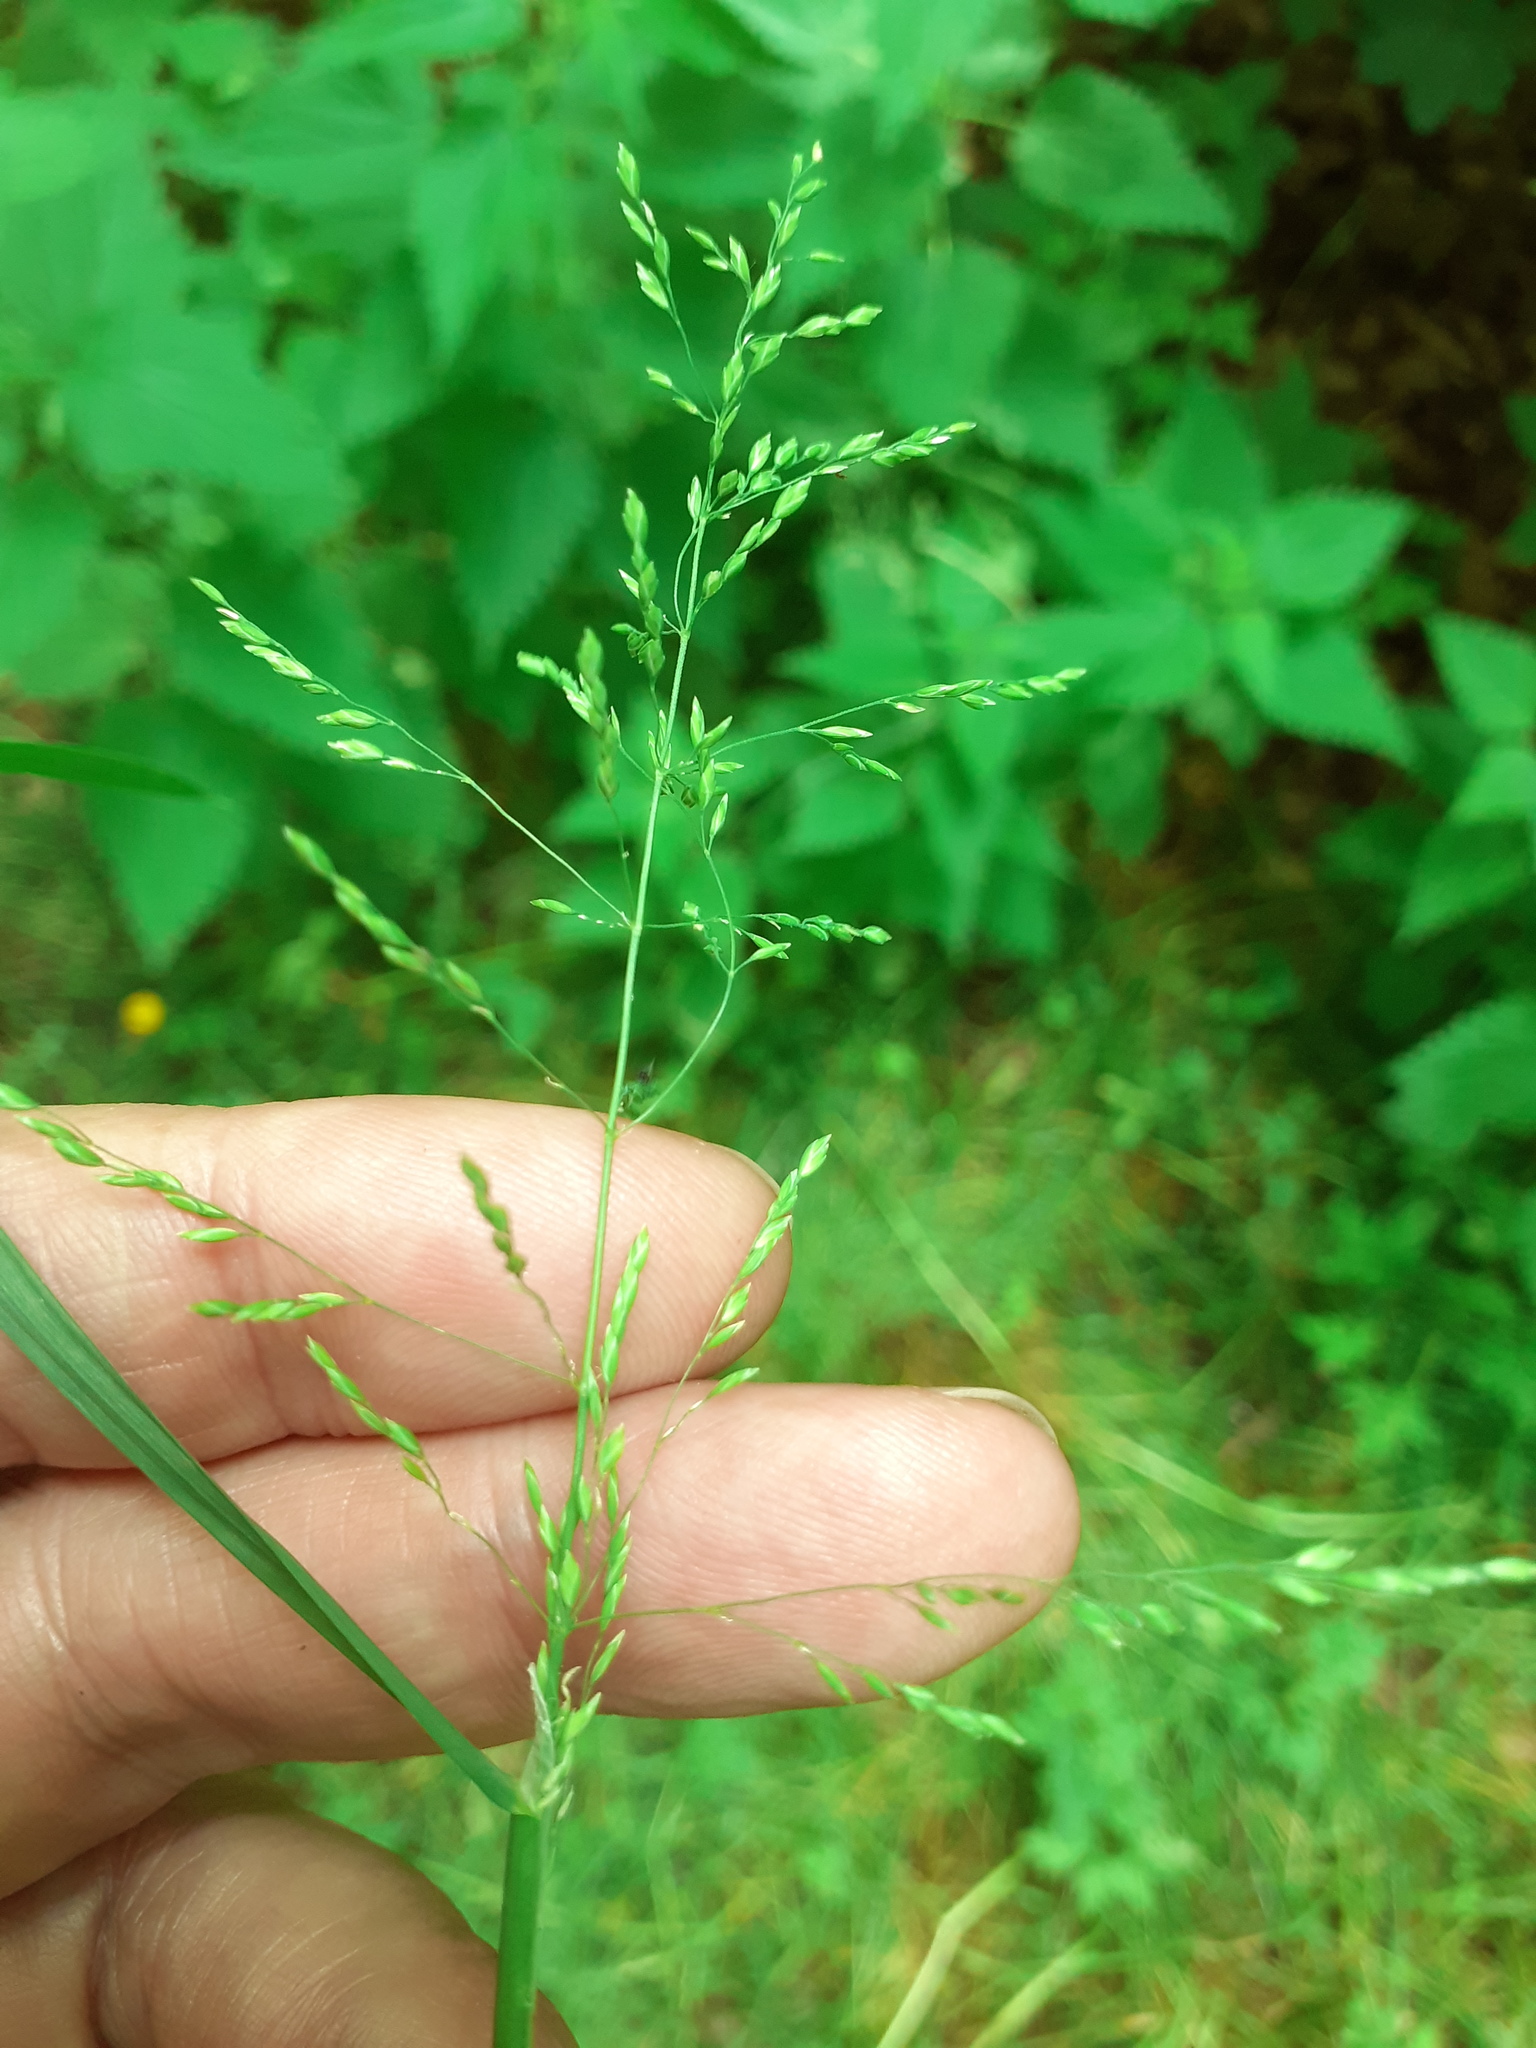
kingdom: Plantae
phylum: Tracheophyta
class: Liliopsida
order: Poales
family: Poaceae
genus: Poa
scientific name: Poa trivialis
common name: Rough bluegrass
